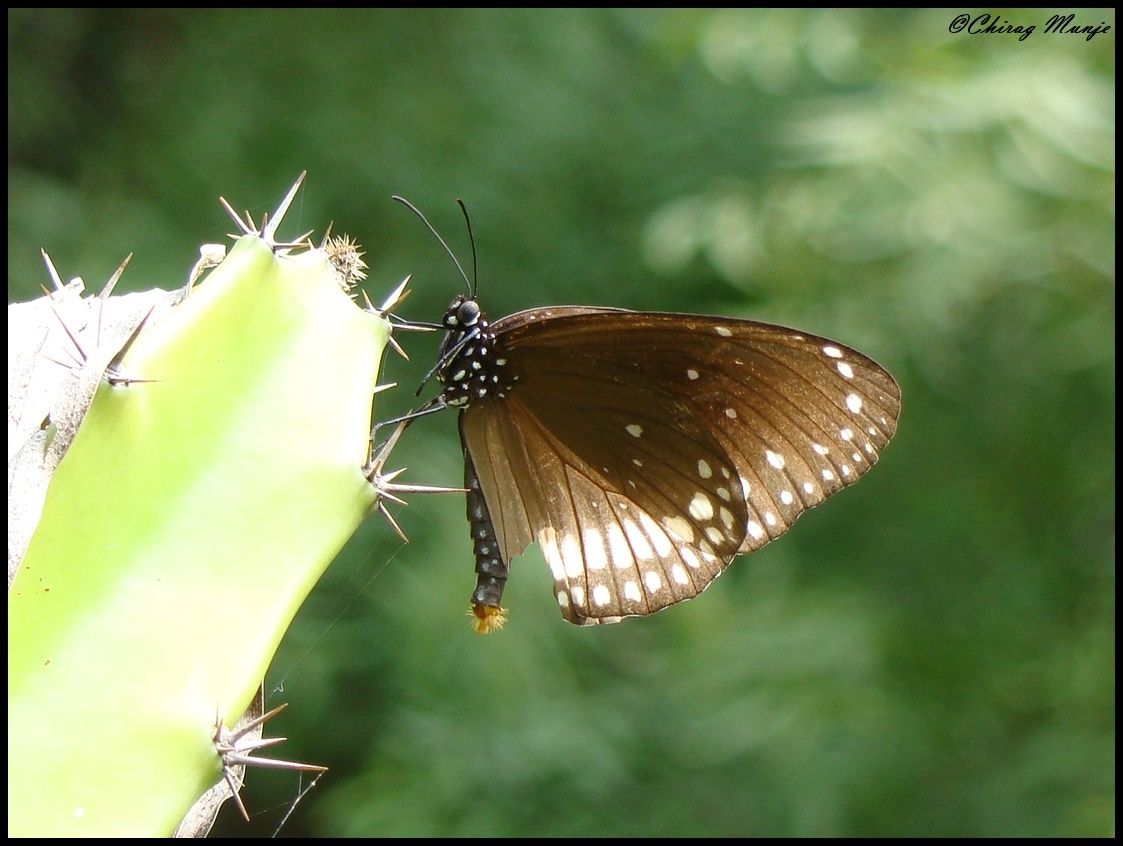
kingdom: Animalia
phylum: Arthropoda
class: Insecta
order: Lepidoptera
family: Nymphalidae
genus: Euploea
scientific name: Euploea core
